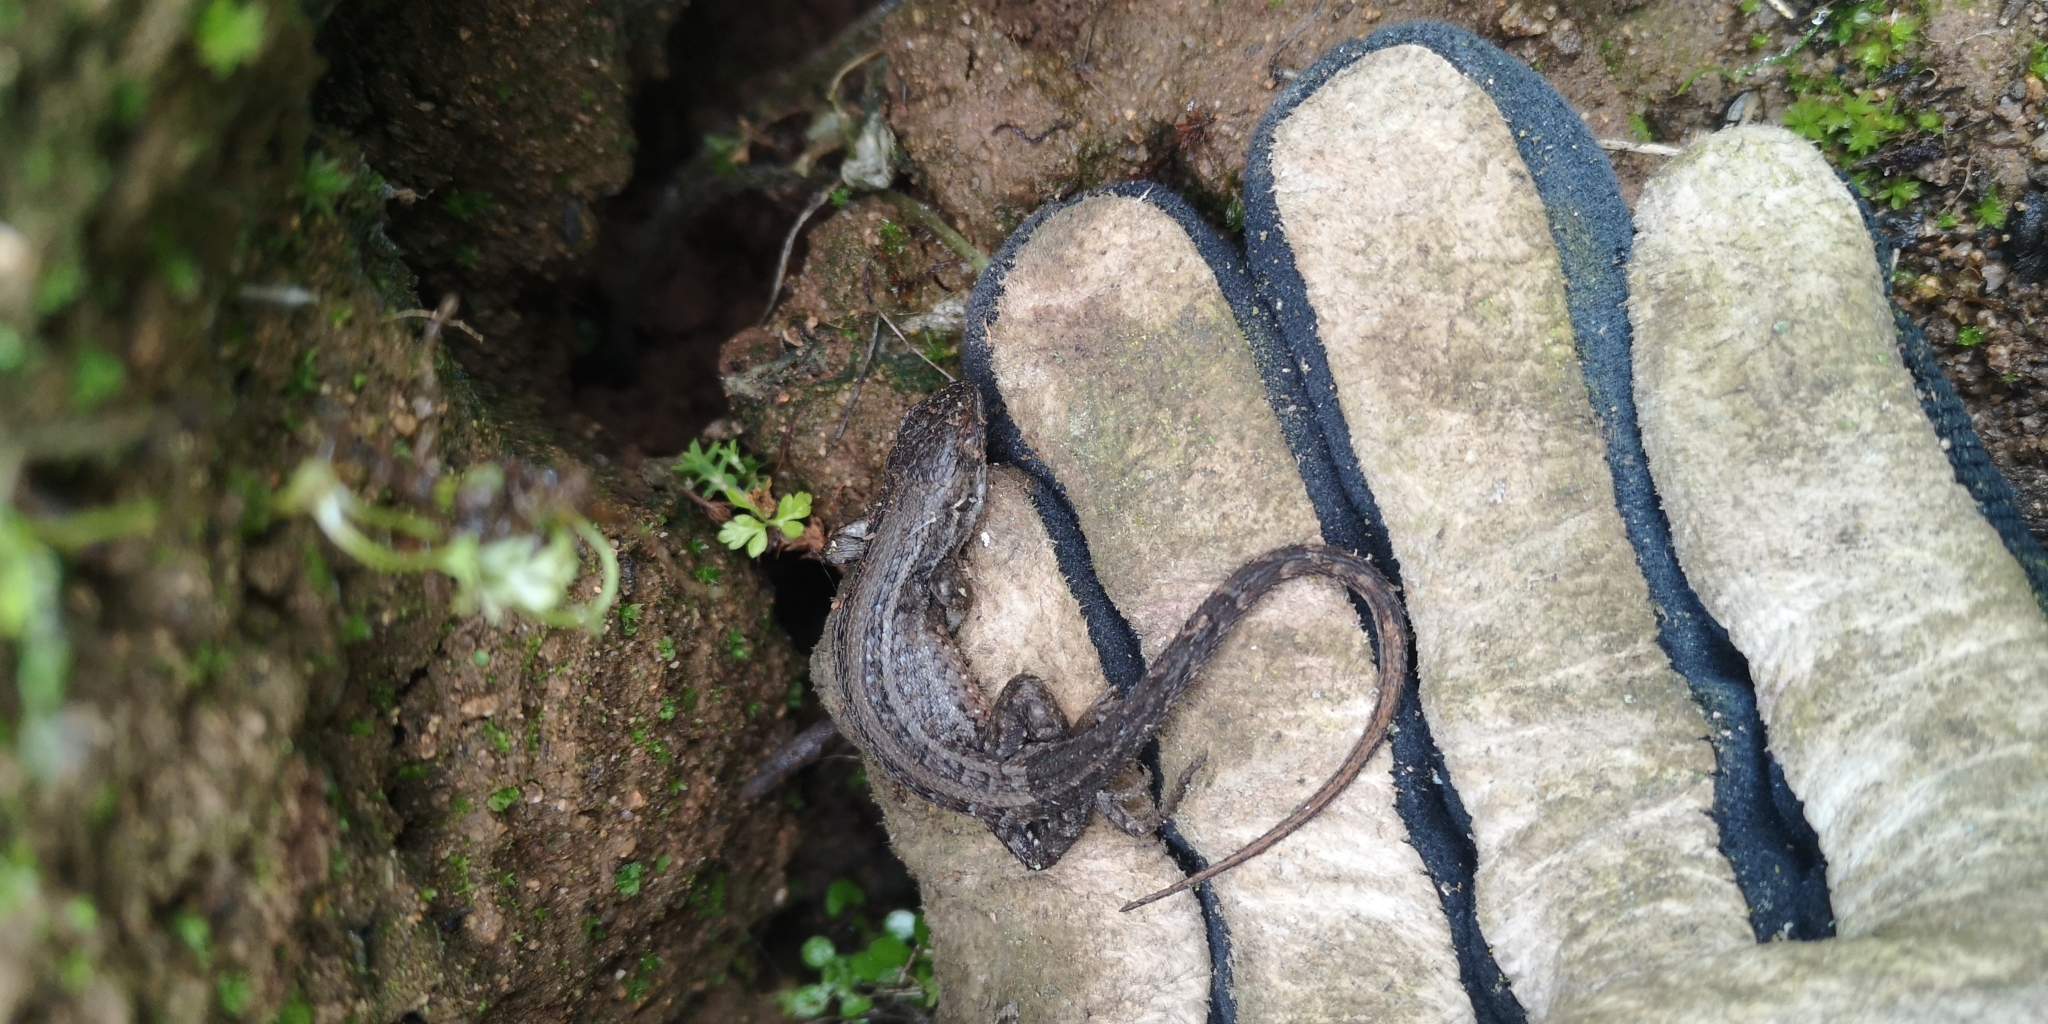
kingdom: Animalia
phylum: Chordata
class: Squamata
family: Liolaemidae
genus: Liolaemus
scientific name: Liolaemus lemniscatus
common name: Wreath tree iguana
